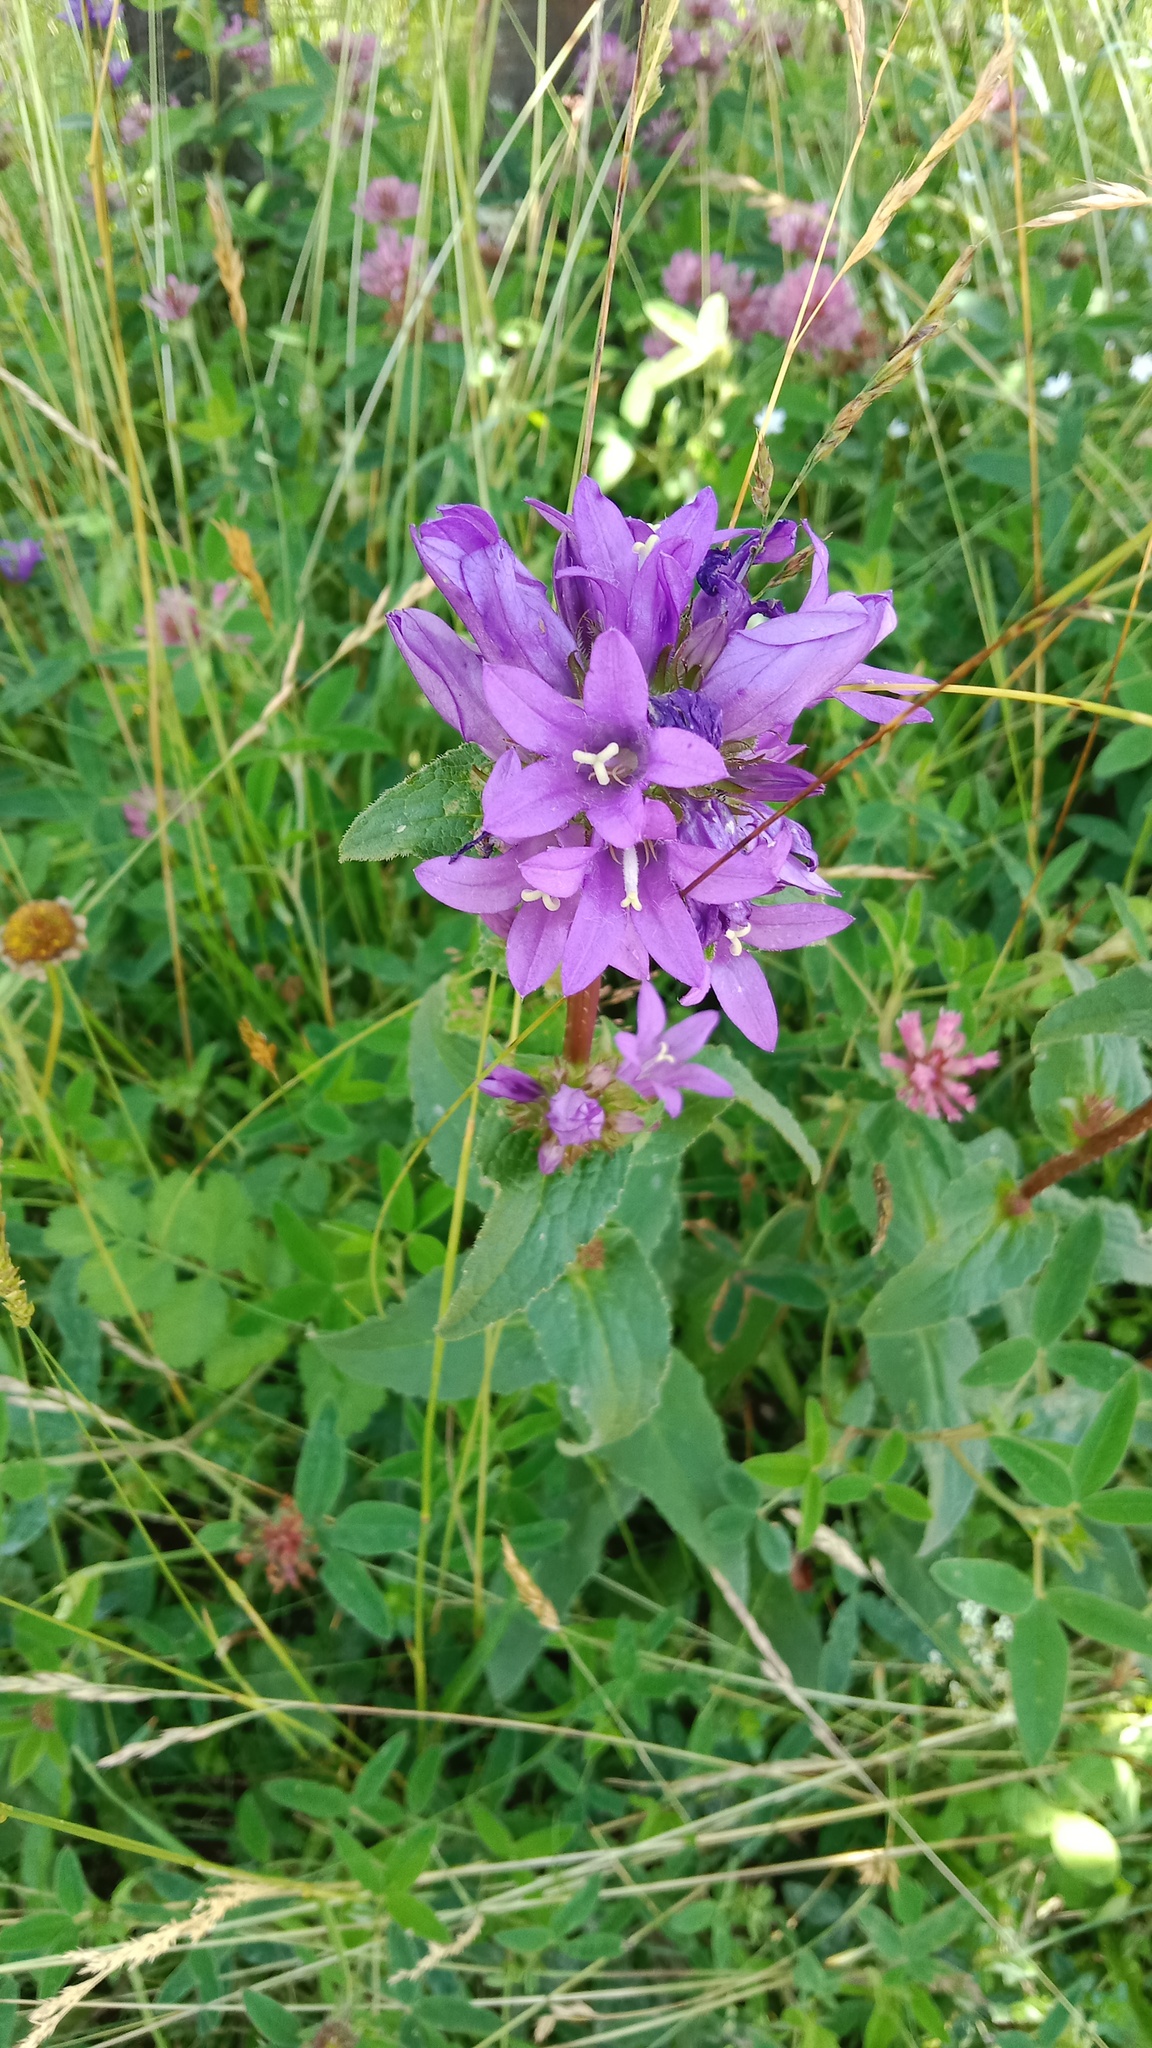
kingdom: Plantae
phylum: Tracheophyta
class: Magnoliopsida
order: Asterales
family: Campanulaceae
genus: Campanula
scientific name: Campanula glomerata
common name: Clustered bellflower
